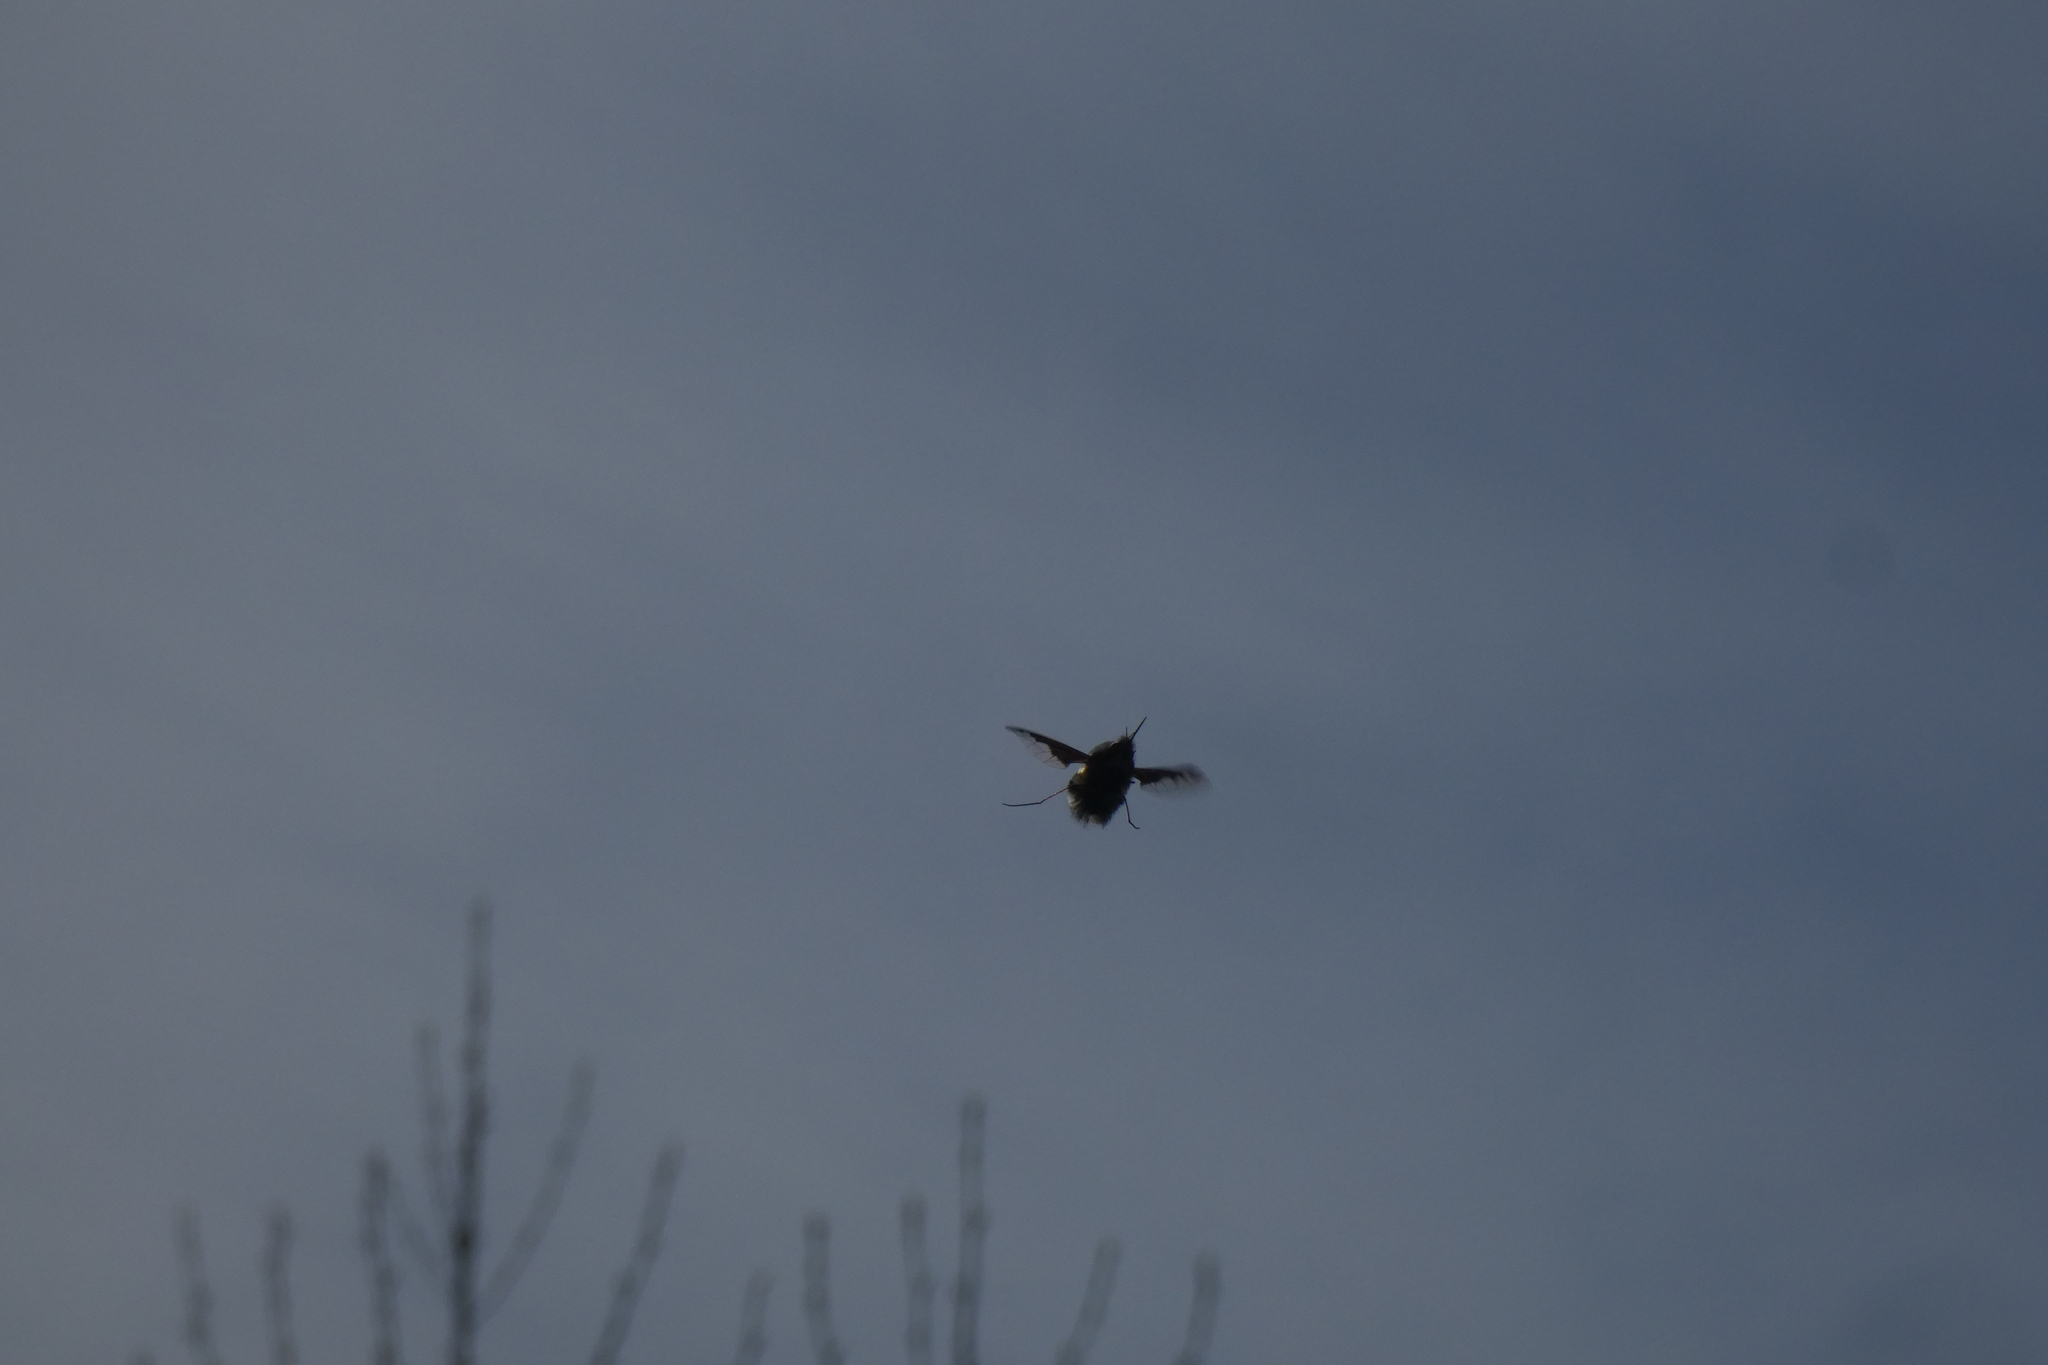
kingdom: Animalia
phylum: Arthropoda
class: Insecta
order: Diptera
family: Bombyliidae
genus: Bombylius
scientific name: Bombylius major
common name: Bee fly
